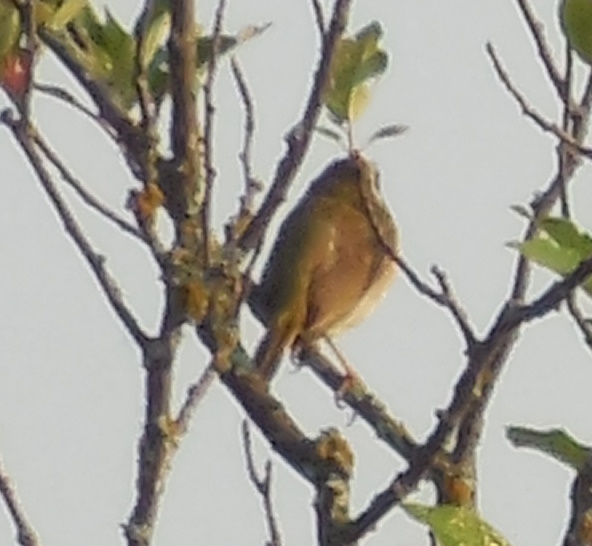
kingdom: Animalia
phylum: Chordata
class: Aves
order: Passeriformes
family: Parulidae
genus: Geothlypis
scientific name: Geothlypis trichas
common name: Common yellowthroat
